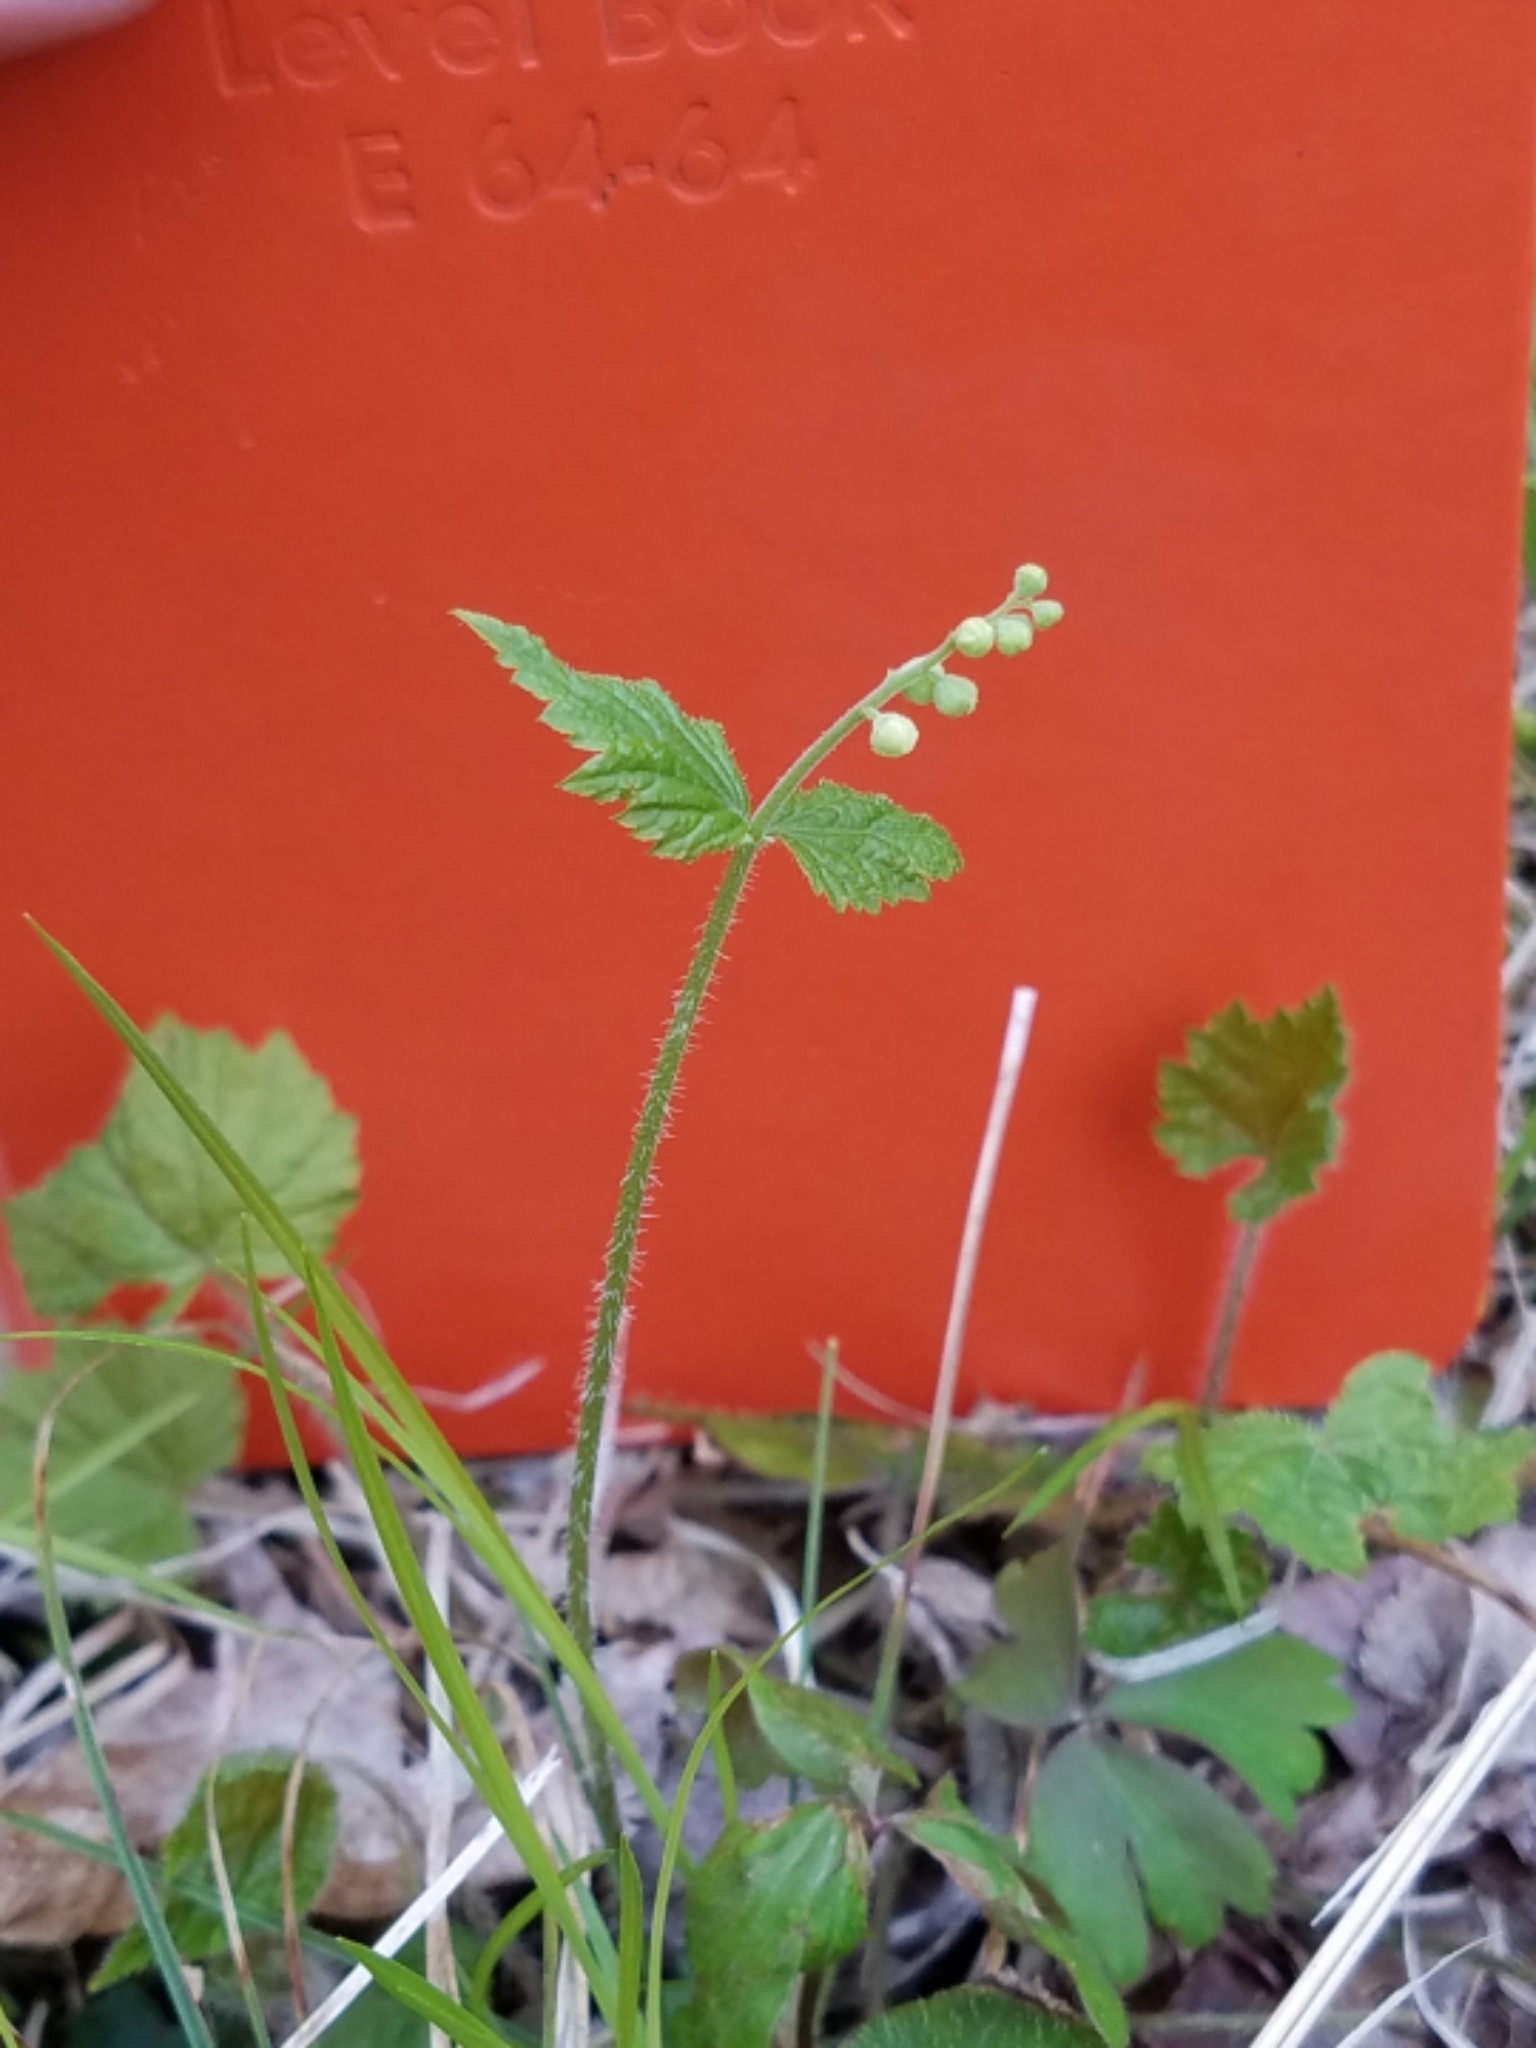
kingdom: Plantae
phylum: Tracheophyta
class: Magnoliopsida
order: Saxifragales
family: Saxifragaceae
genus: Mitella
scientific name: Mitella diphylla
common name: Coolwort
